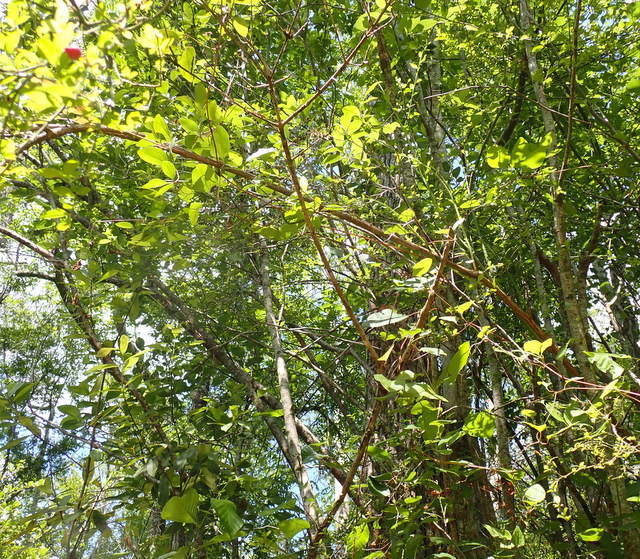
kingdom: Plantae
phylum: Tracheophyta
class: Magnoliopsida
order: Ericales
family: Ericaceae
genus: Vaccinium
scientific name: Vaccinium corymbosum
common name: Blueberry
